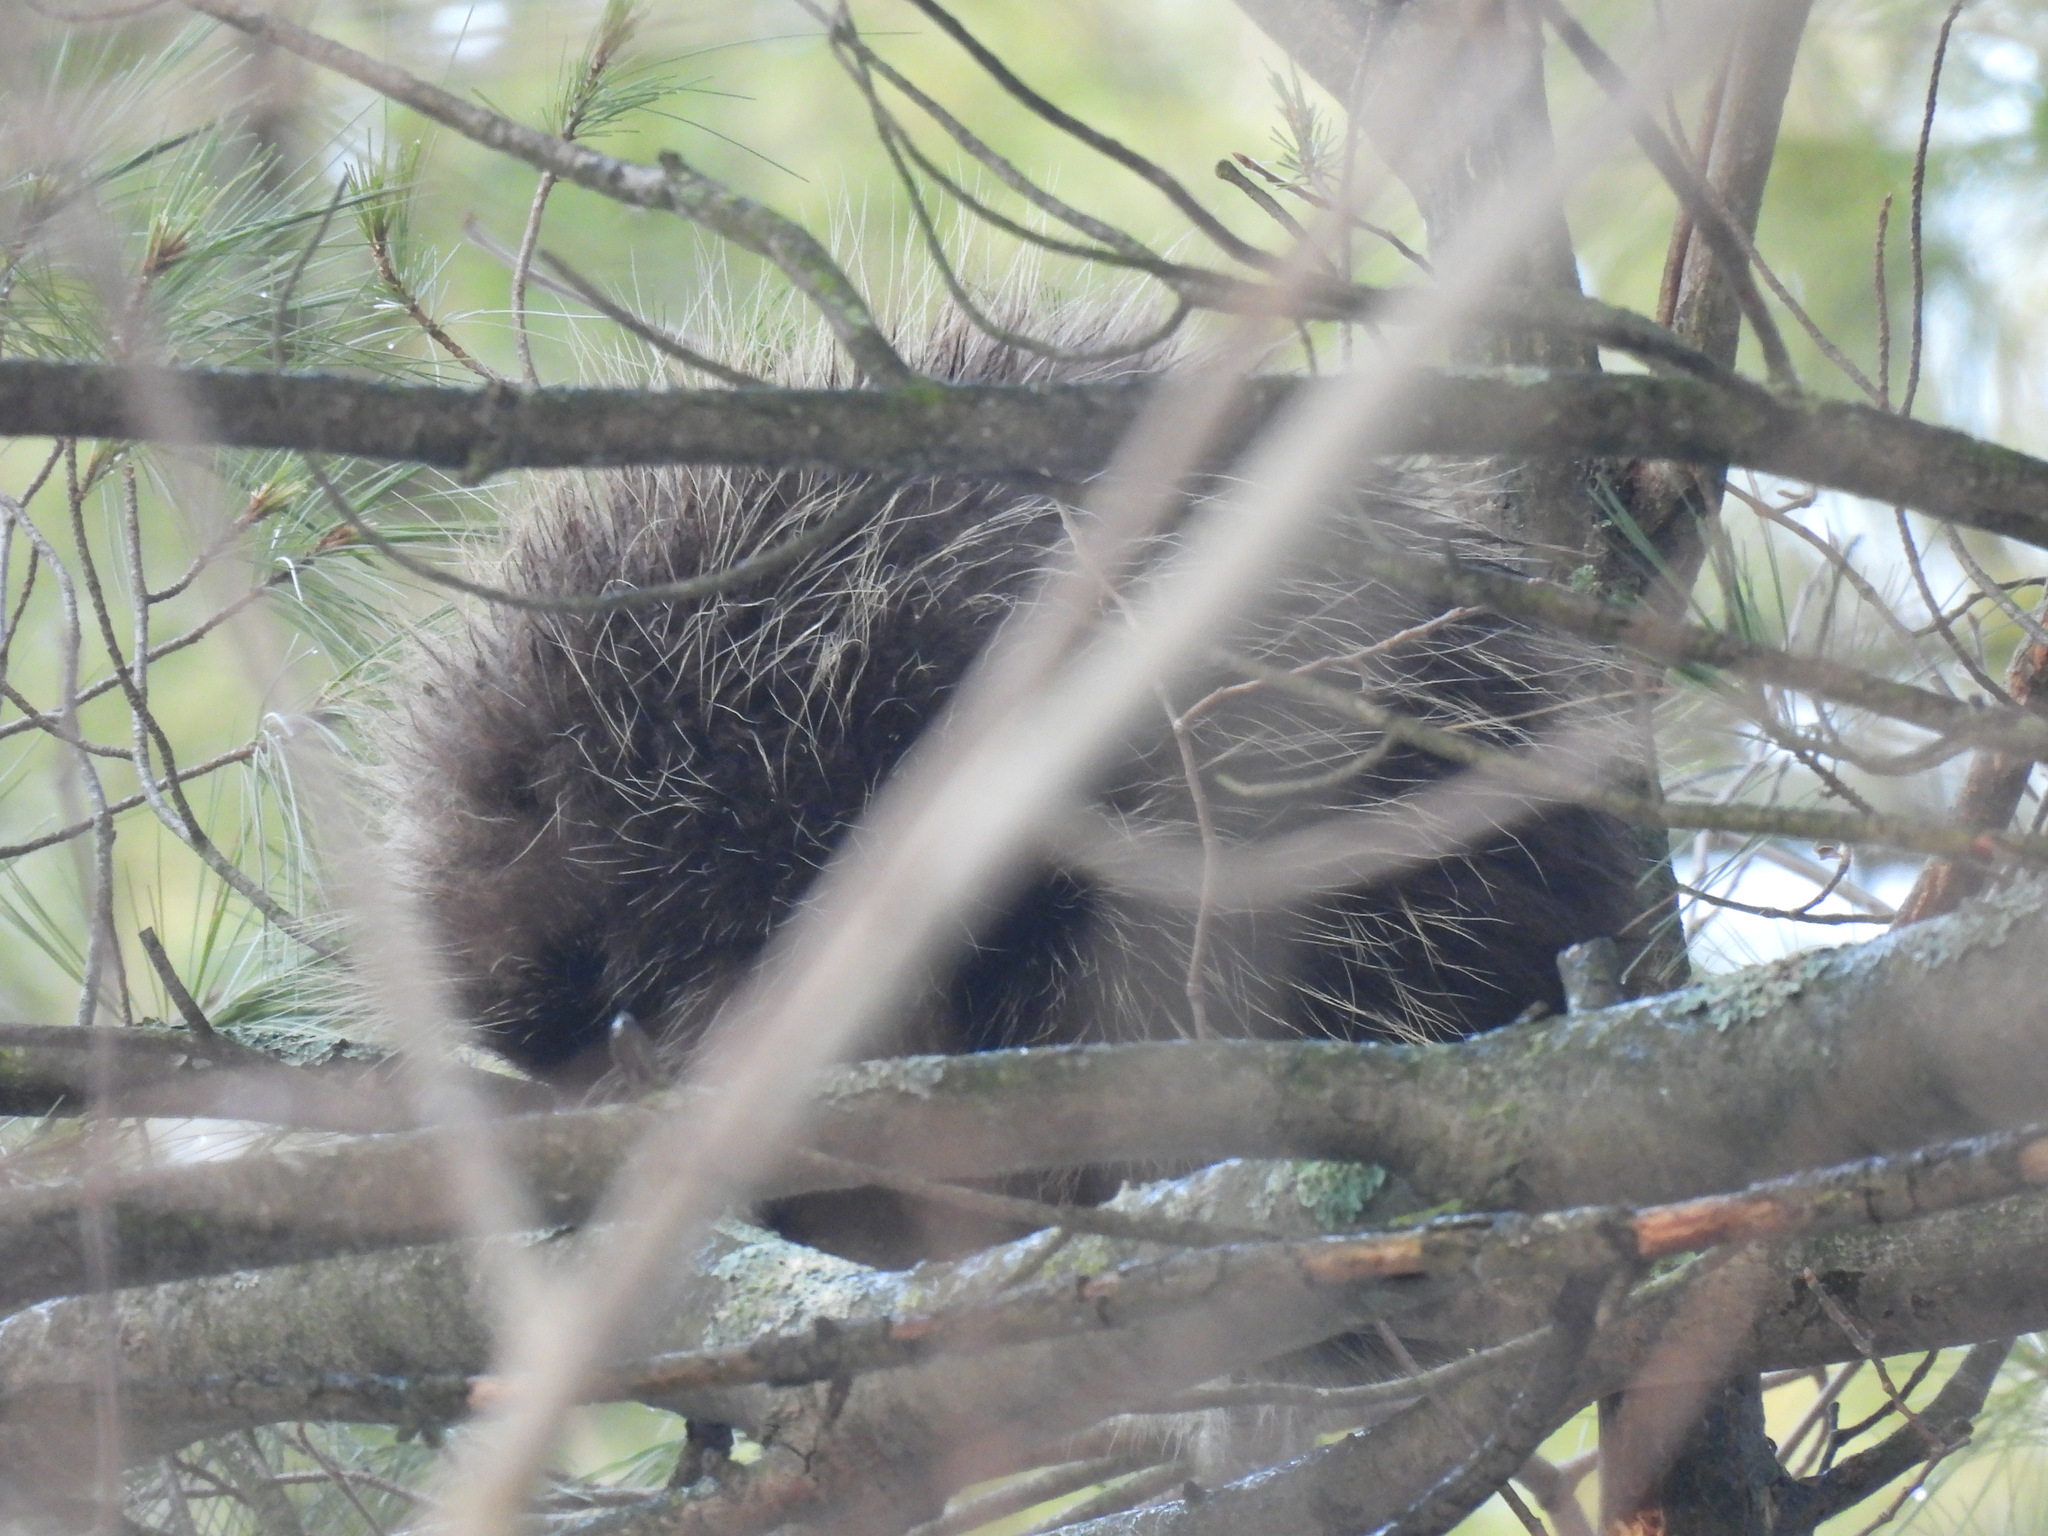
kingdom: Animalia
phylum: Chordata
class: Mammalia
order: Rodentia
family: Erethizontidae
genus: Erethizon
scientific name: Erethizon dorsatus
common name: North american porcupine
